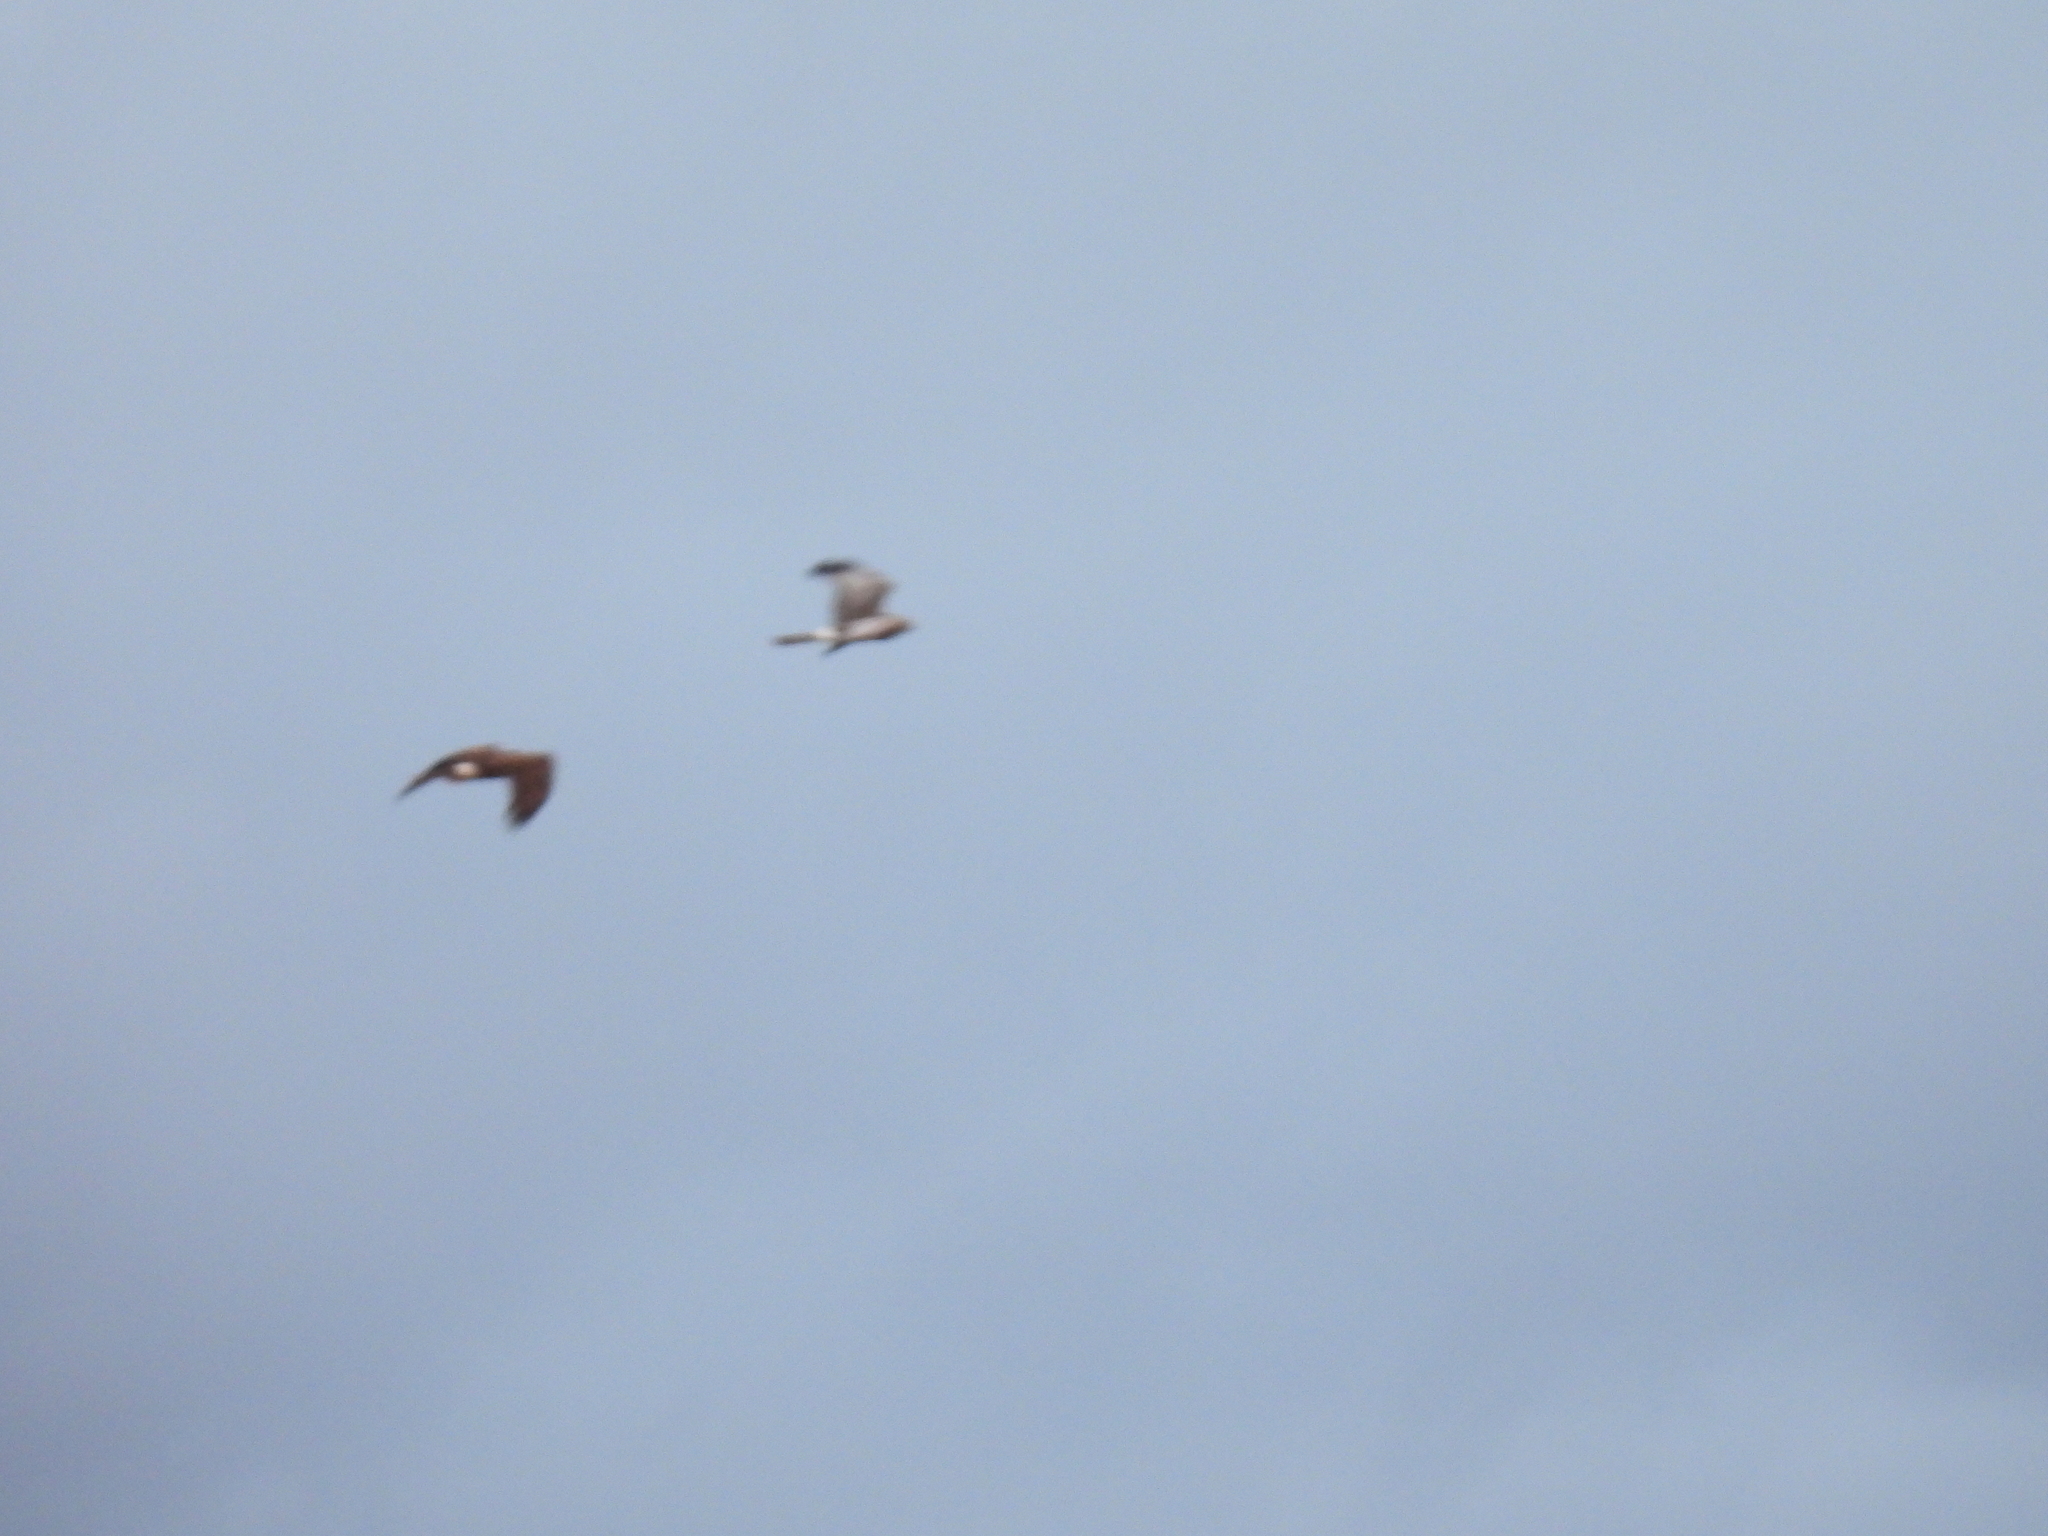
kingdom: Animalia
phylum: Chordata
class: Aves
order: Accipitriformes
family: Accipitridae
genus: Circus
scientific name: Circus cyaneus
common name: Hen harrier
